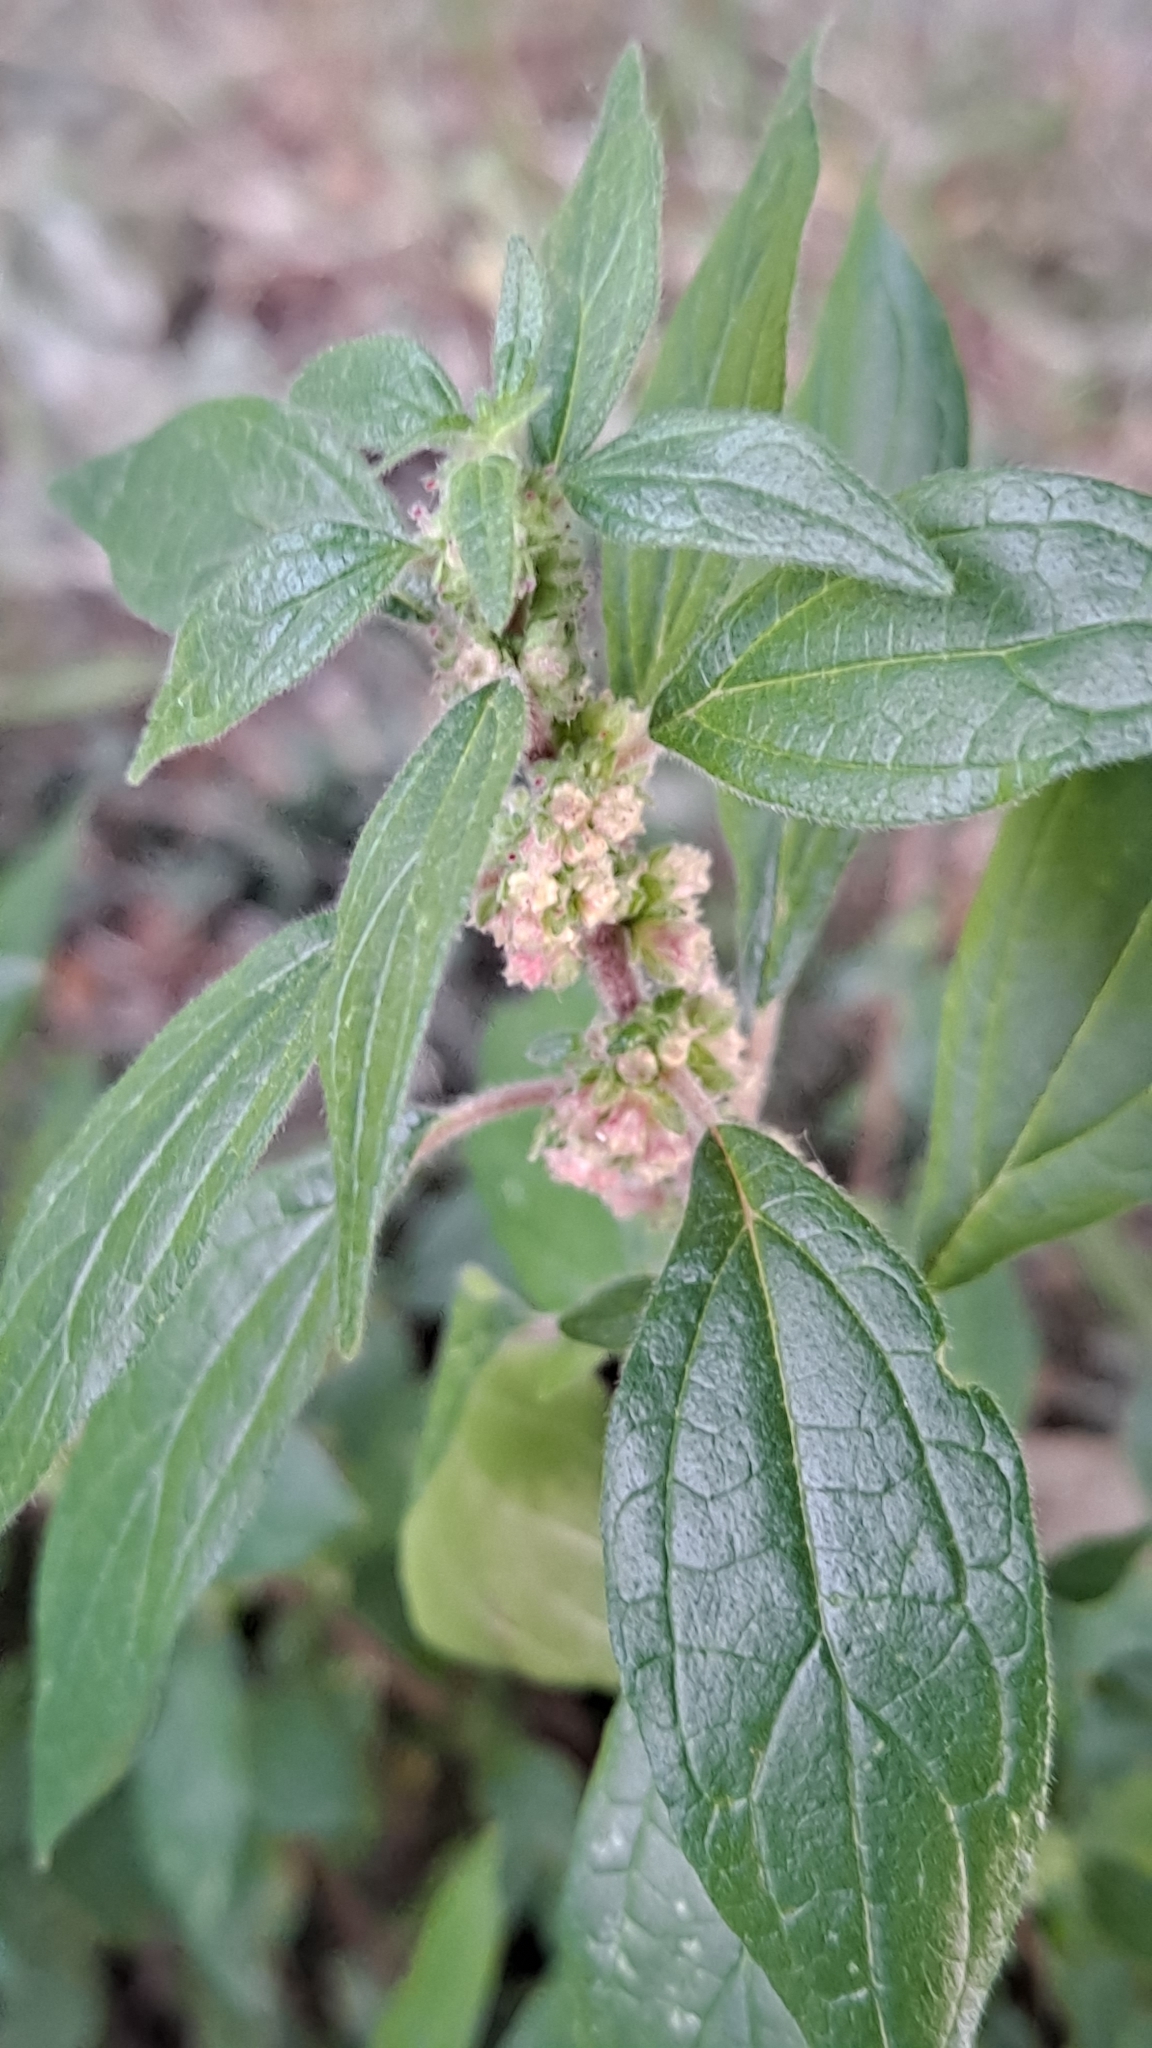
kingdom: Plantae
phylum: Tracheophyta
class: Magnoliopsida
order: Rosales
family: Urticaceae
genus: Parietaria
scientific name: Parietaria judaica
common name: Pellitory-of-the-wall
